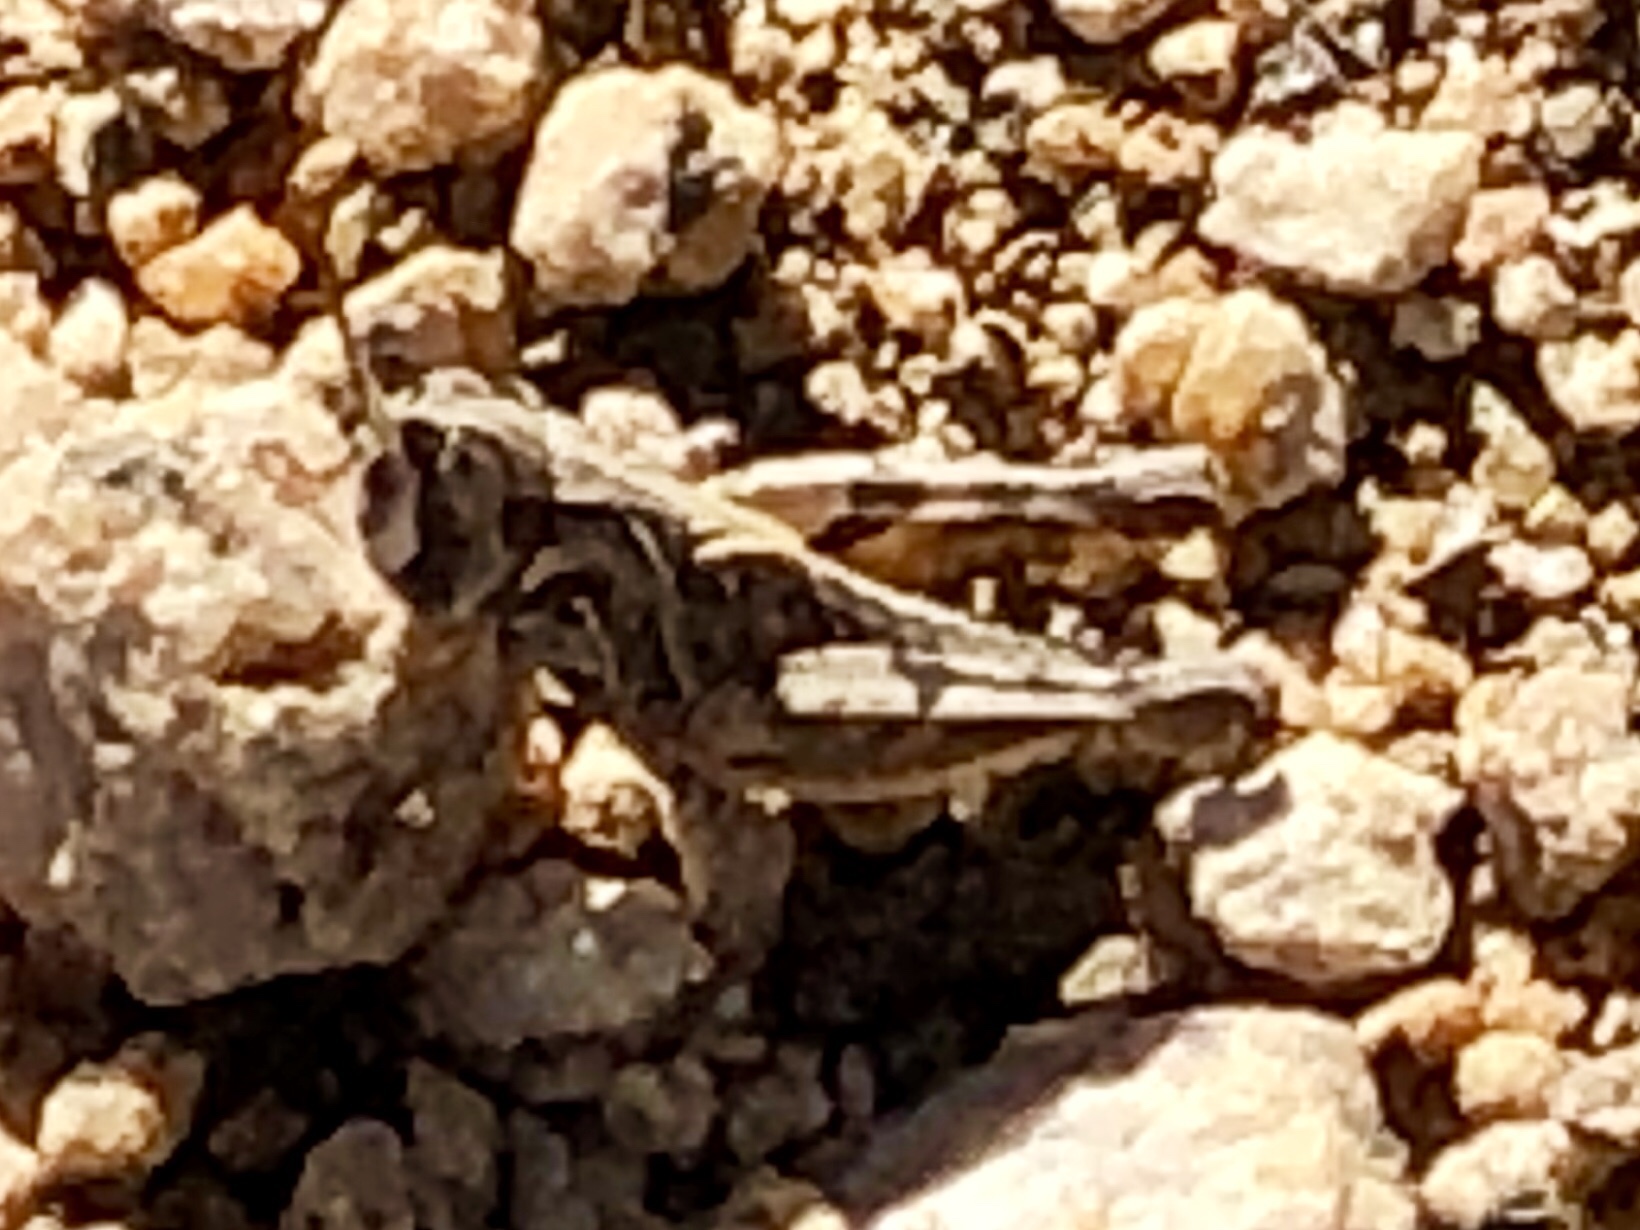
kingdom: Animalia
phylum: Arthropoda
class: Insecta
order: Orthoptera
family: Acrididae
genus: Psoloessa
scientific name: Psoloessa
